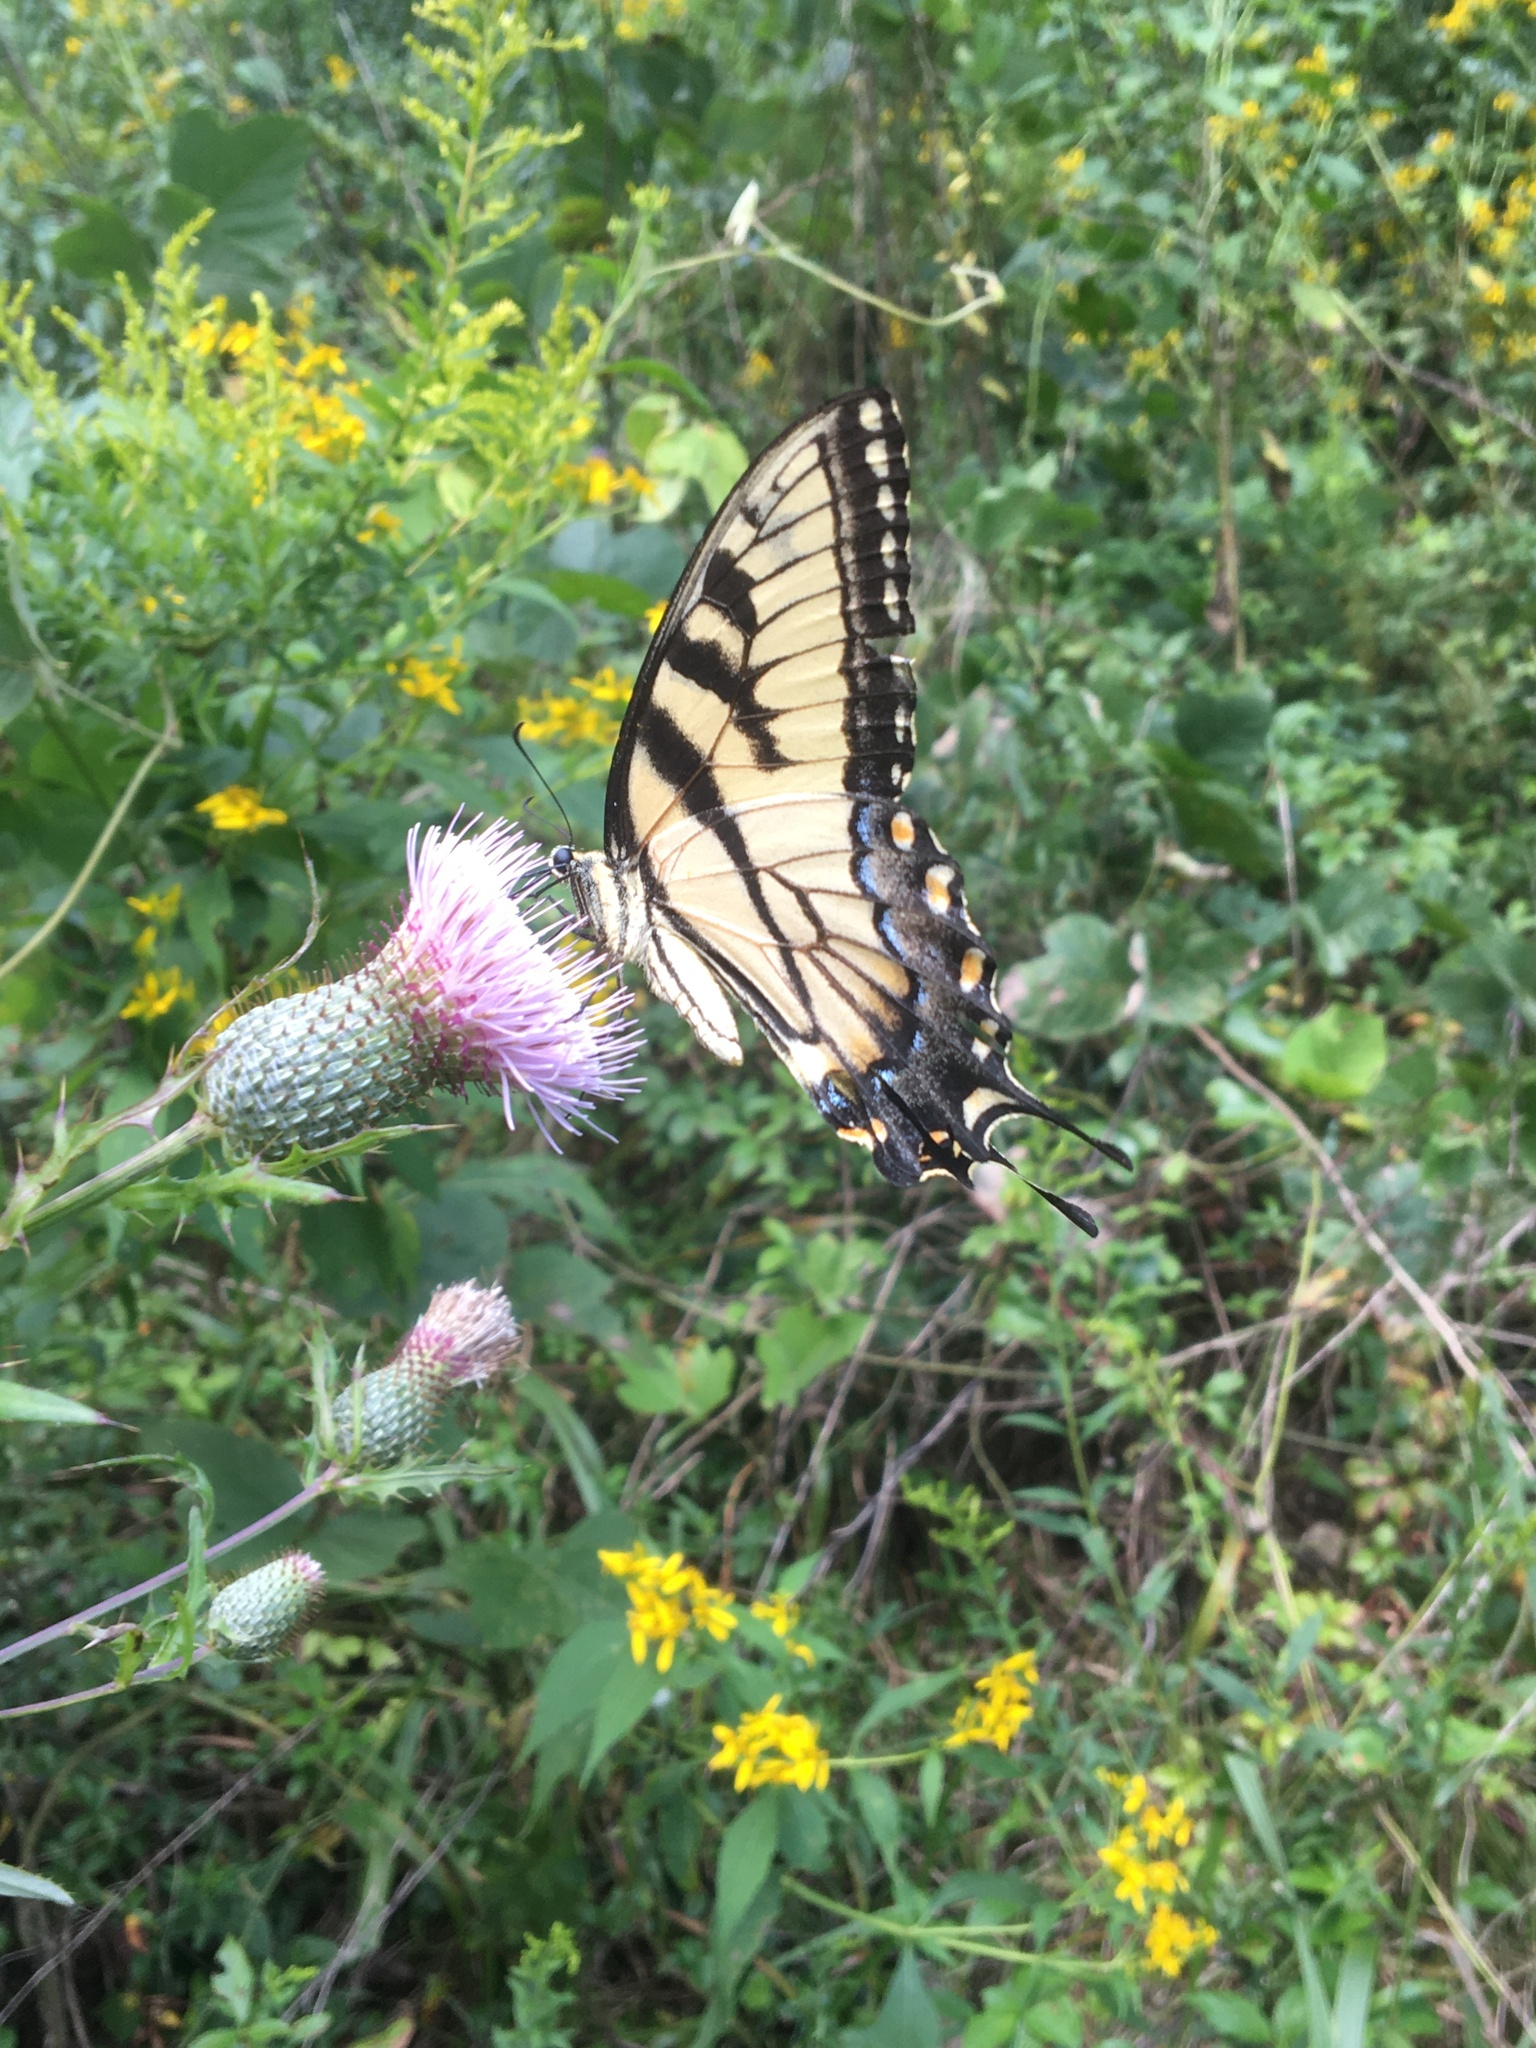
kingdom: Animalia
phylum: Arthropoda
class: Insecta
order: Lepidoptera
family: Papilionidae
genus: Papilio
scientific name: Papilio glaucus
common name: Tiger swallowtail
